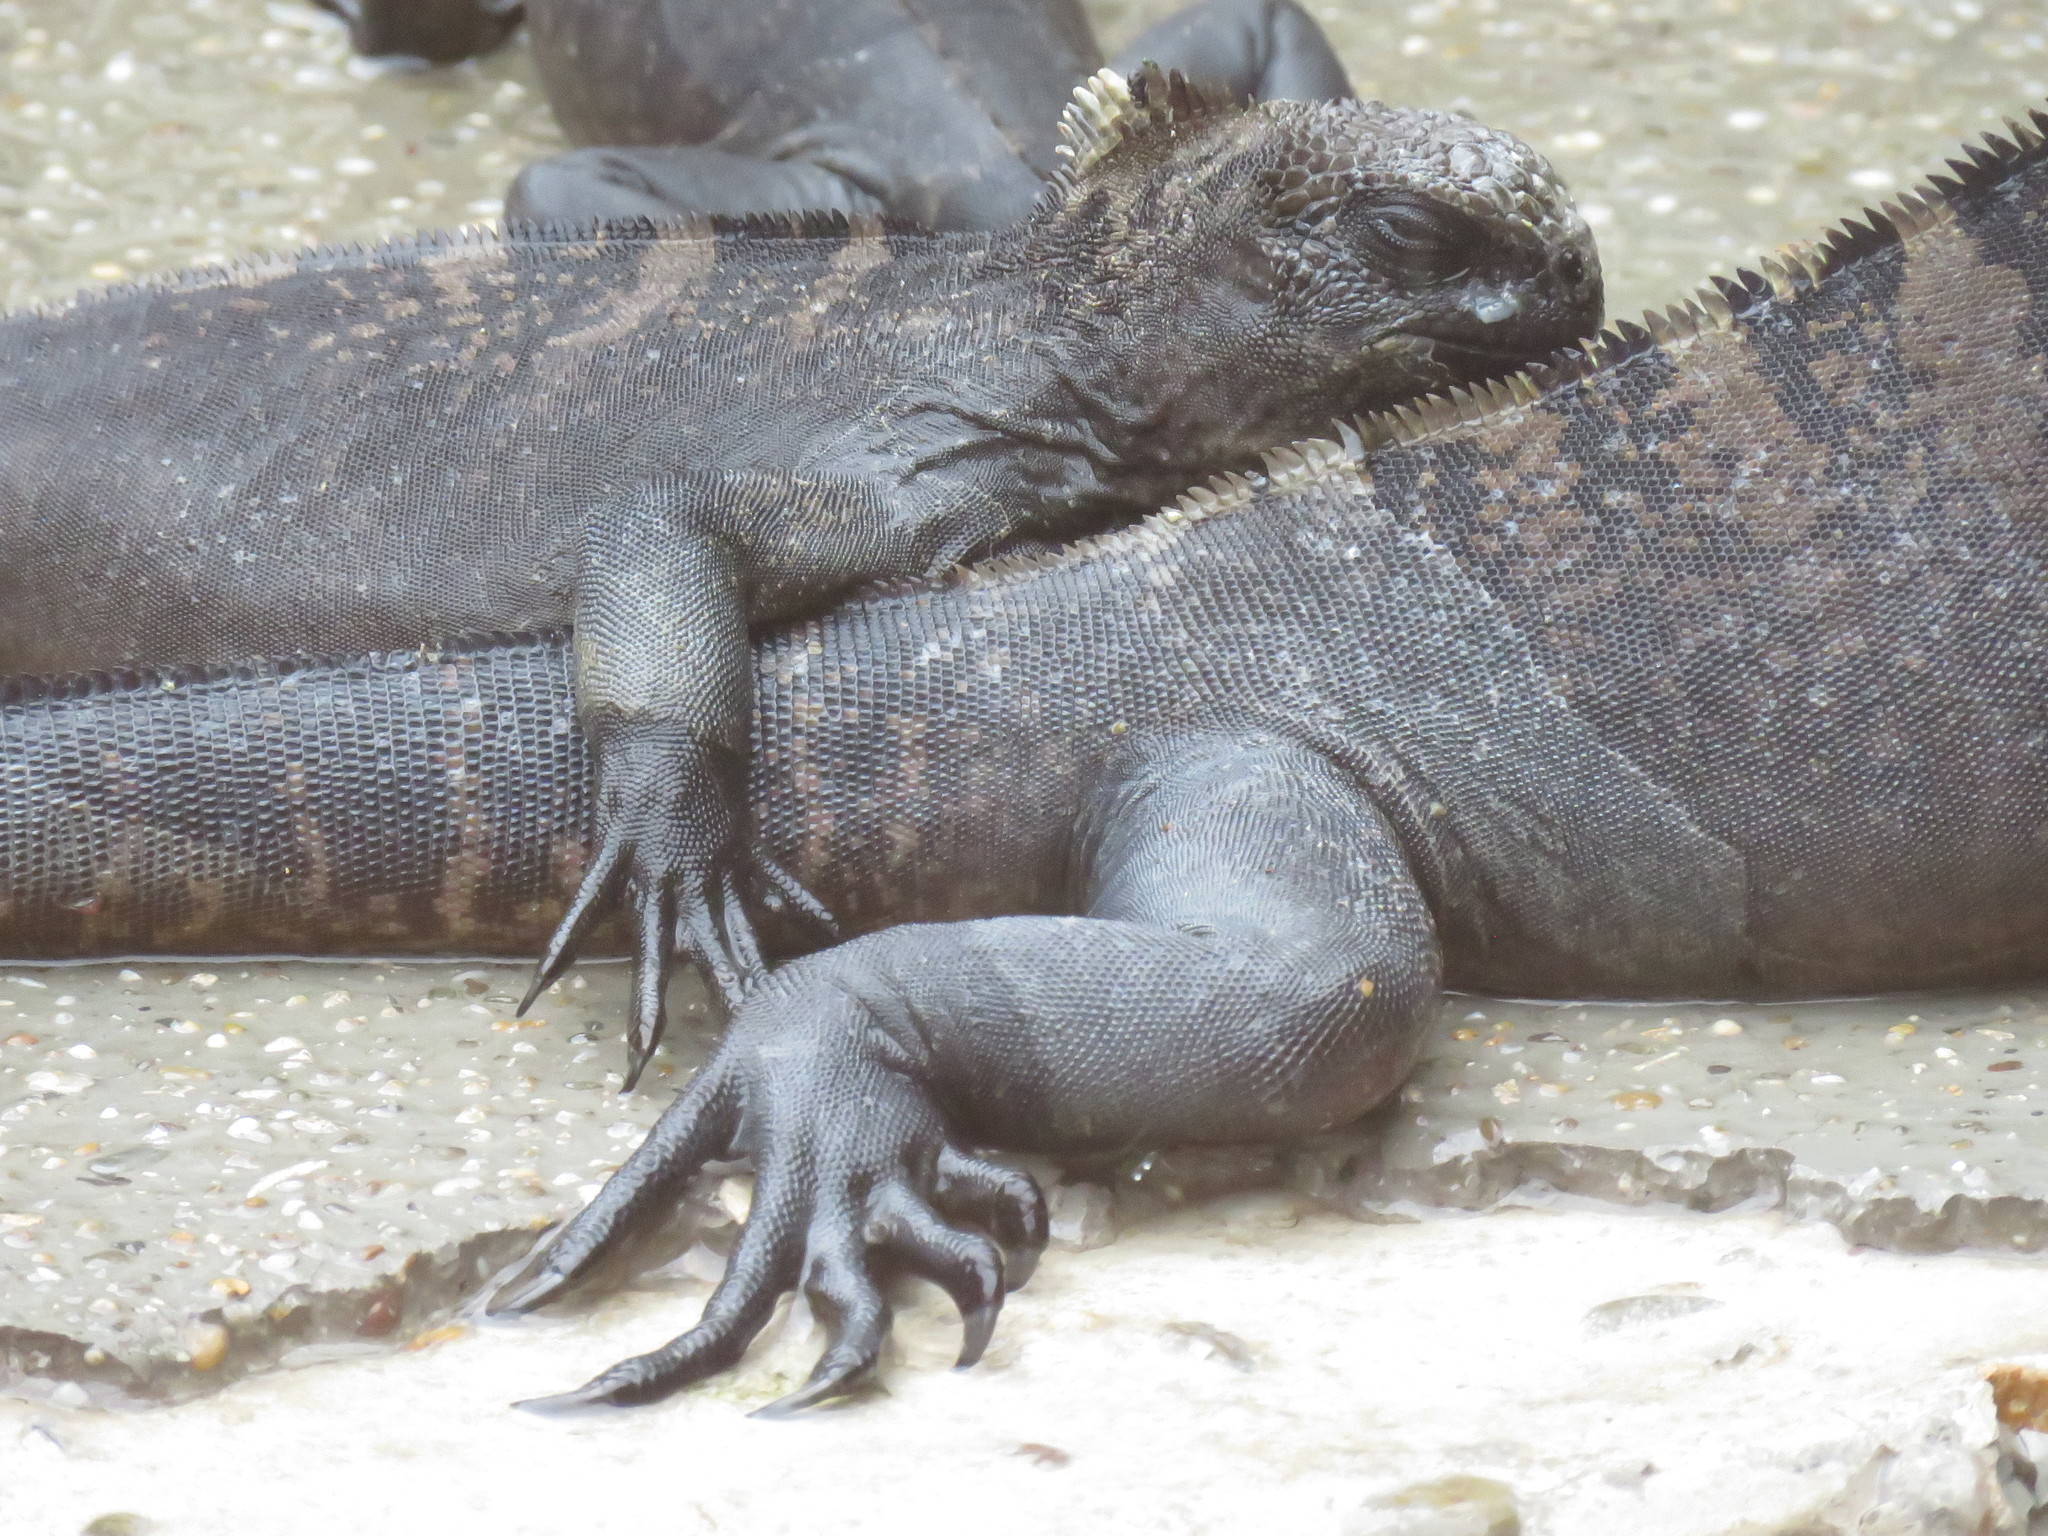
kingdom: Animalia
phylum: Chordata
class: Squamata
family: Iguanidae
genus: Amblyrhynchus
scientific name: Amblyrhynchus cristatus
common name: Marine iguana
